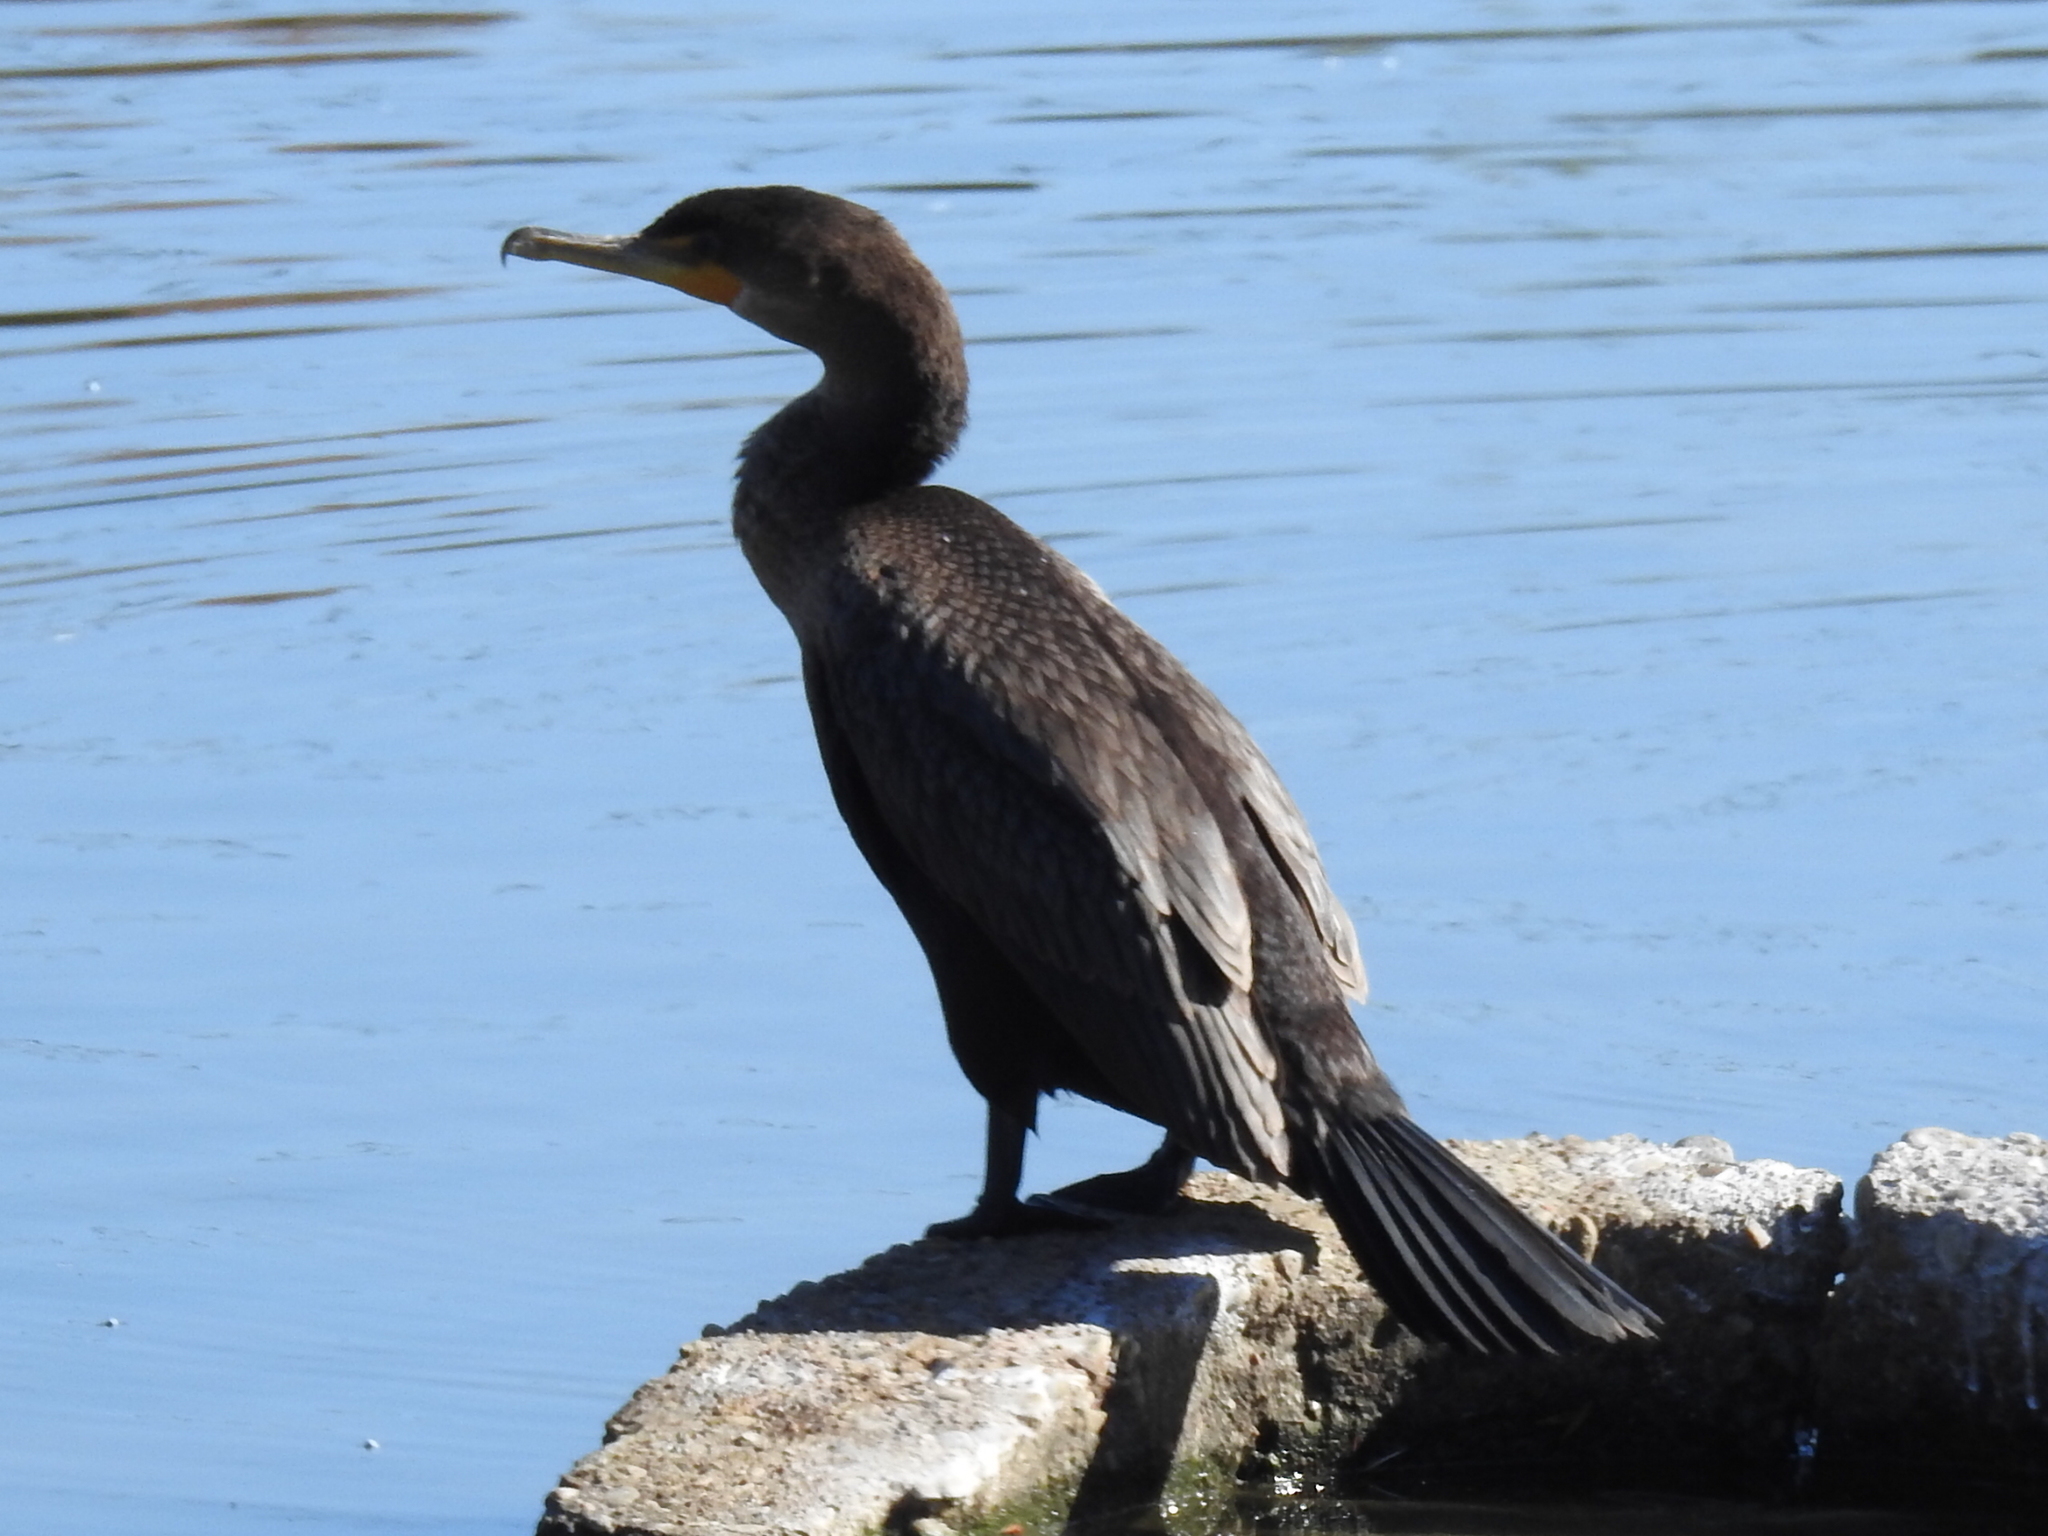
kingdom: Animalia
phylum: Chordata
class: Aves
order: Suliformes
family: Phalacrocoracidae
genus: Phalacrocorax
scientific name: Phalacrocorax auritus
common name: Double-crested cormorant
